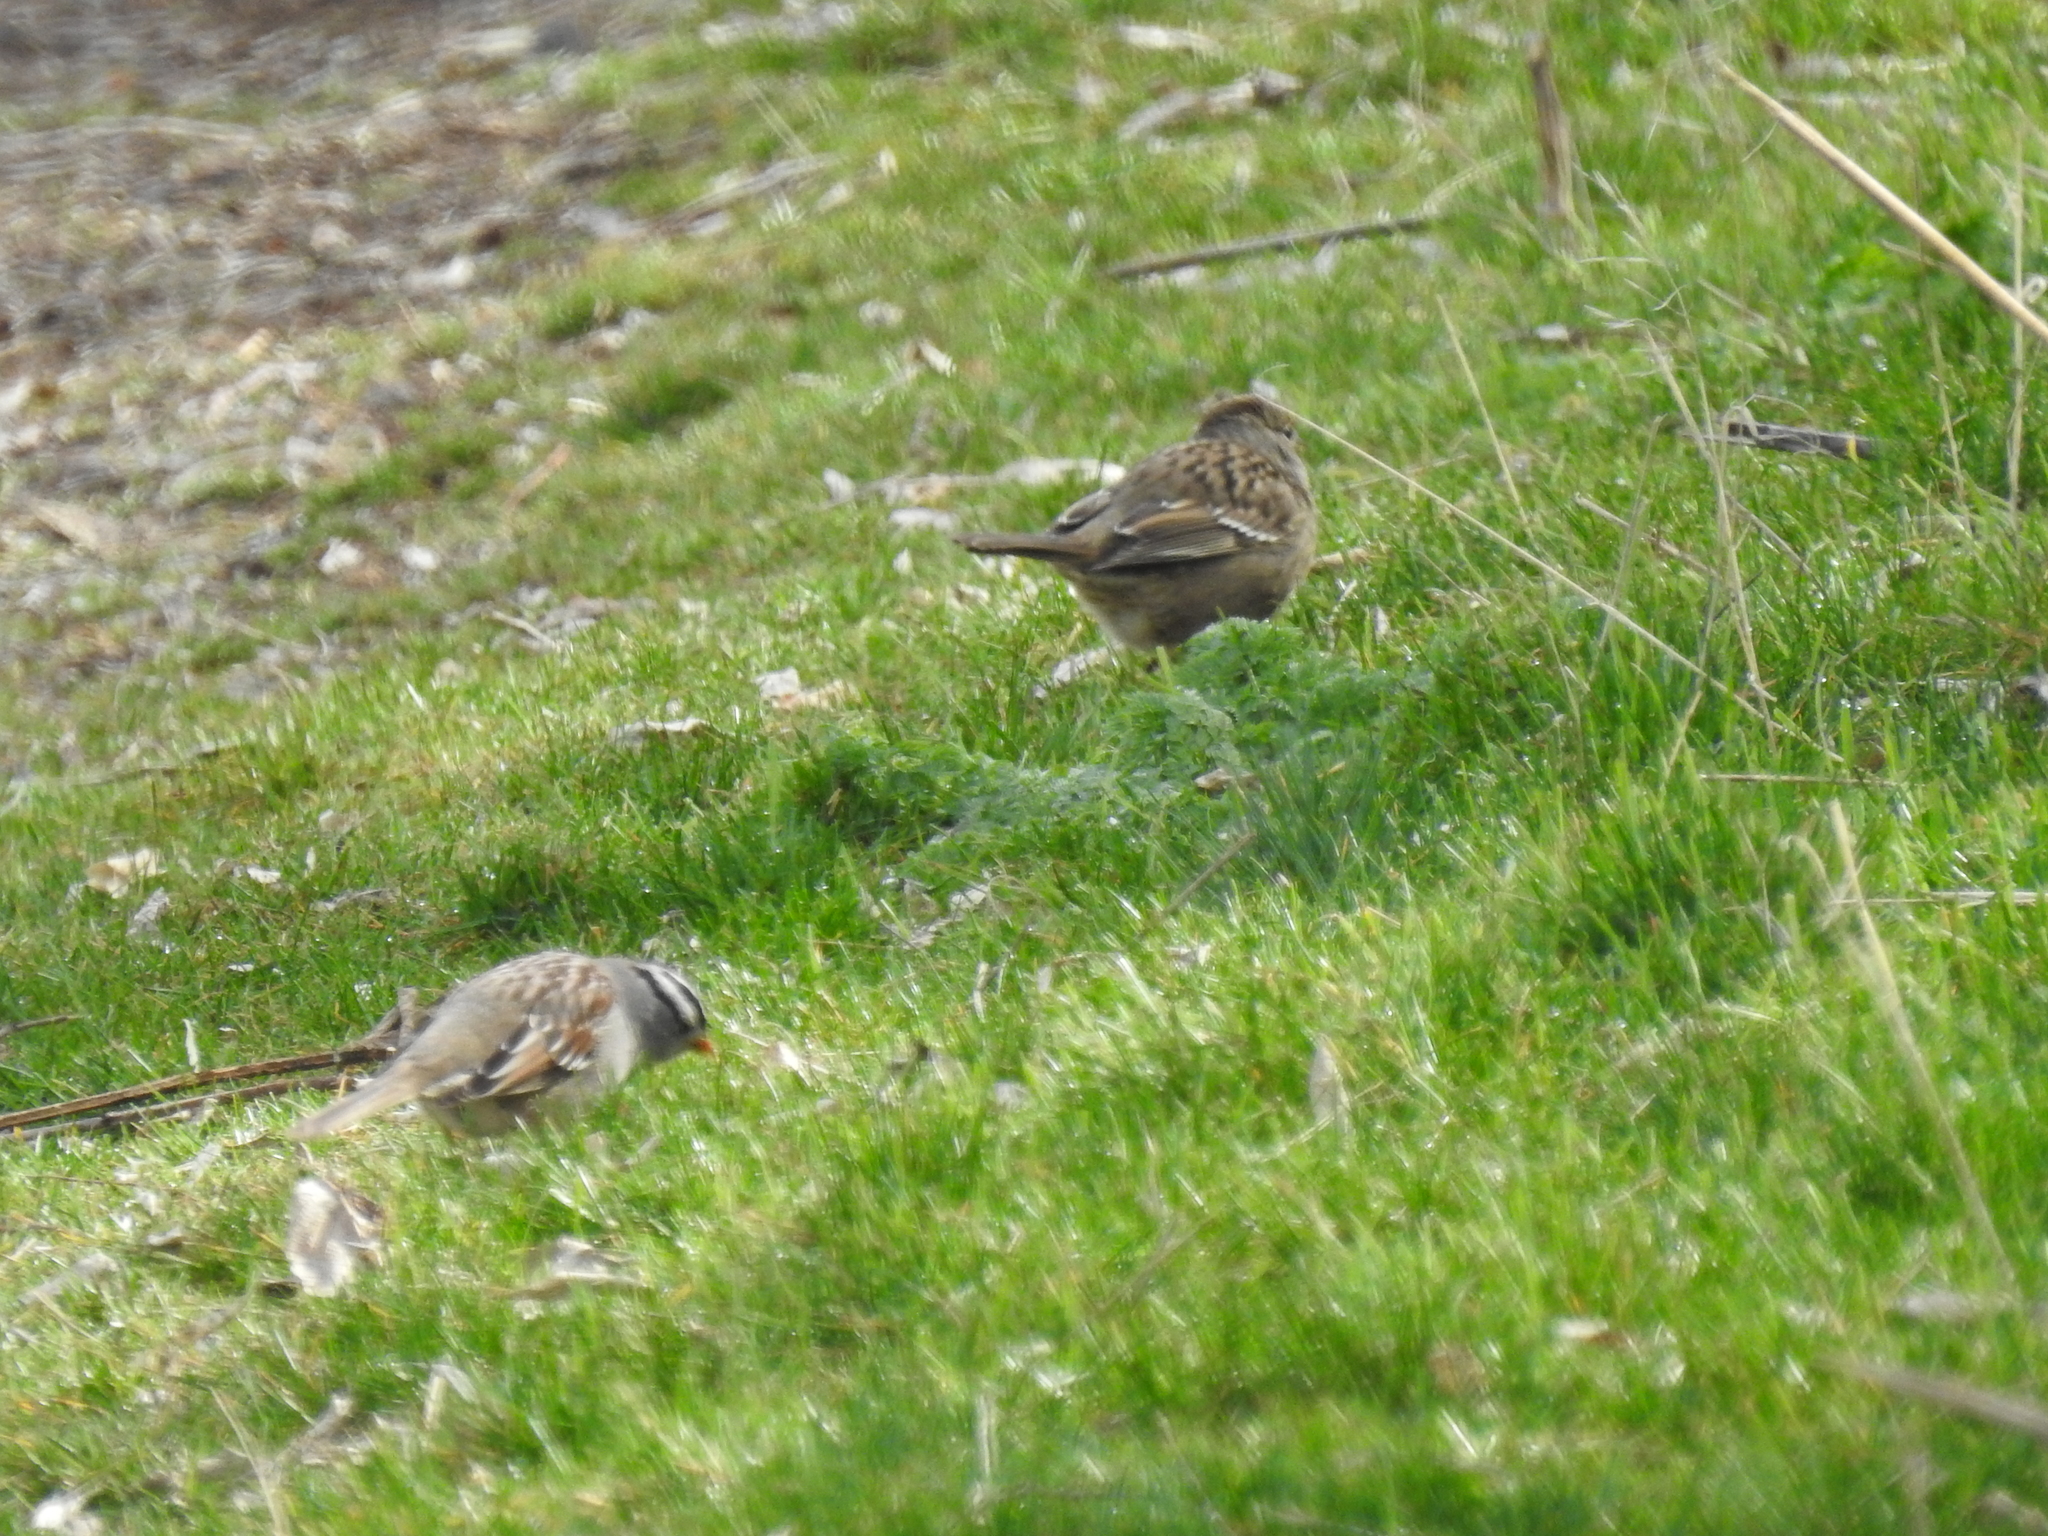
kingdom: Animalia
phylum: Chordata
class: Aves
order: Passeriformes
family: Passerellidae
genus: Zonotrichia
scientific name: Zonotrichia atricapilla
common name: Golden-crowned sparrow
